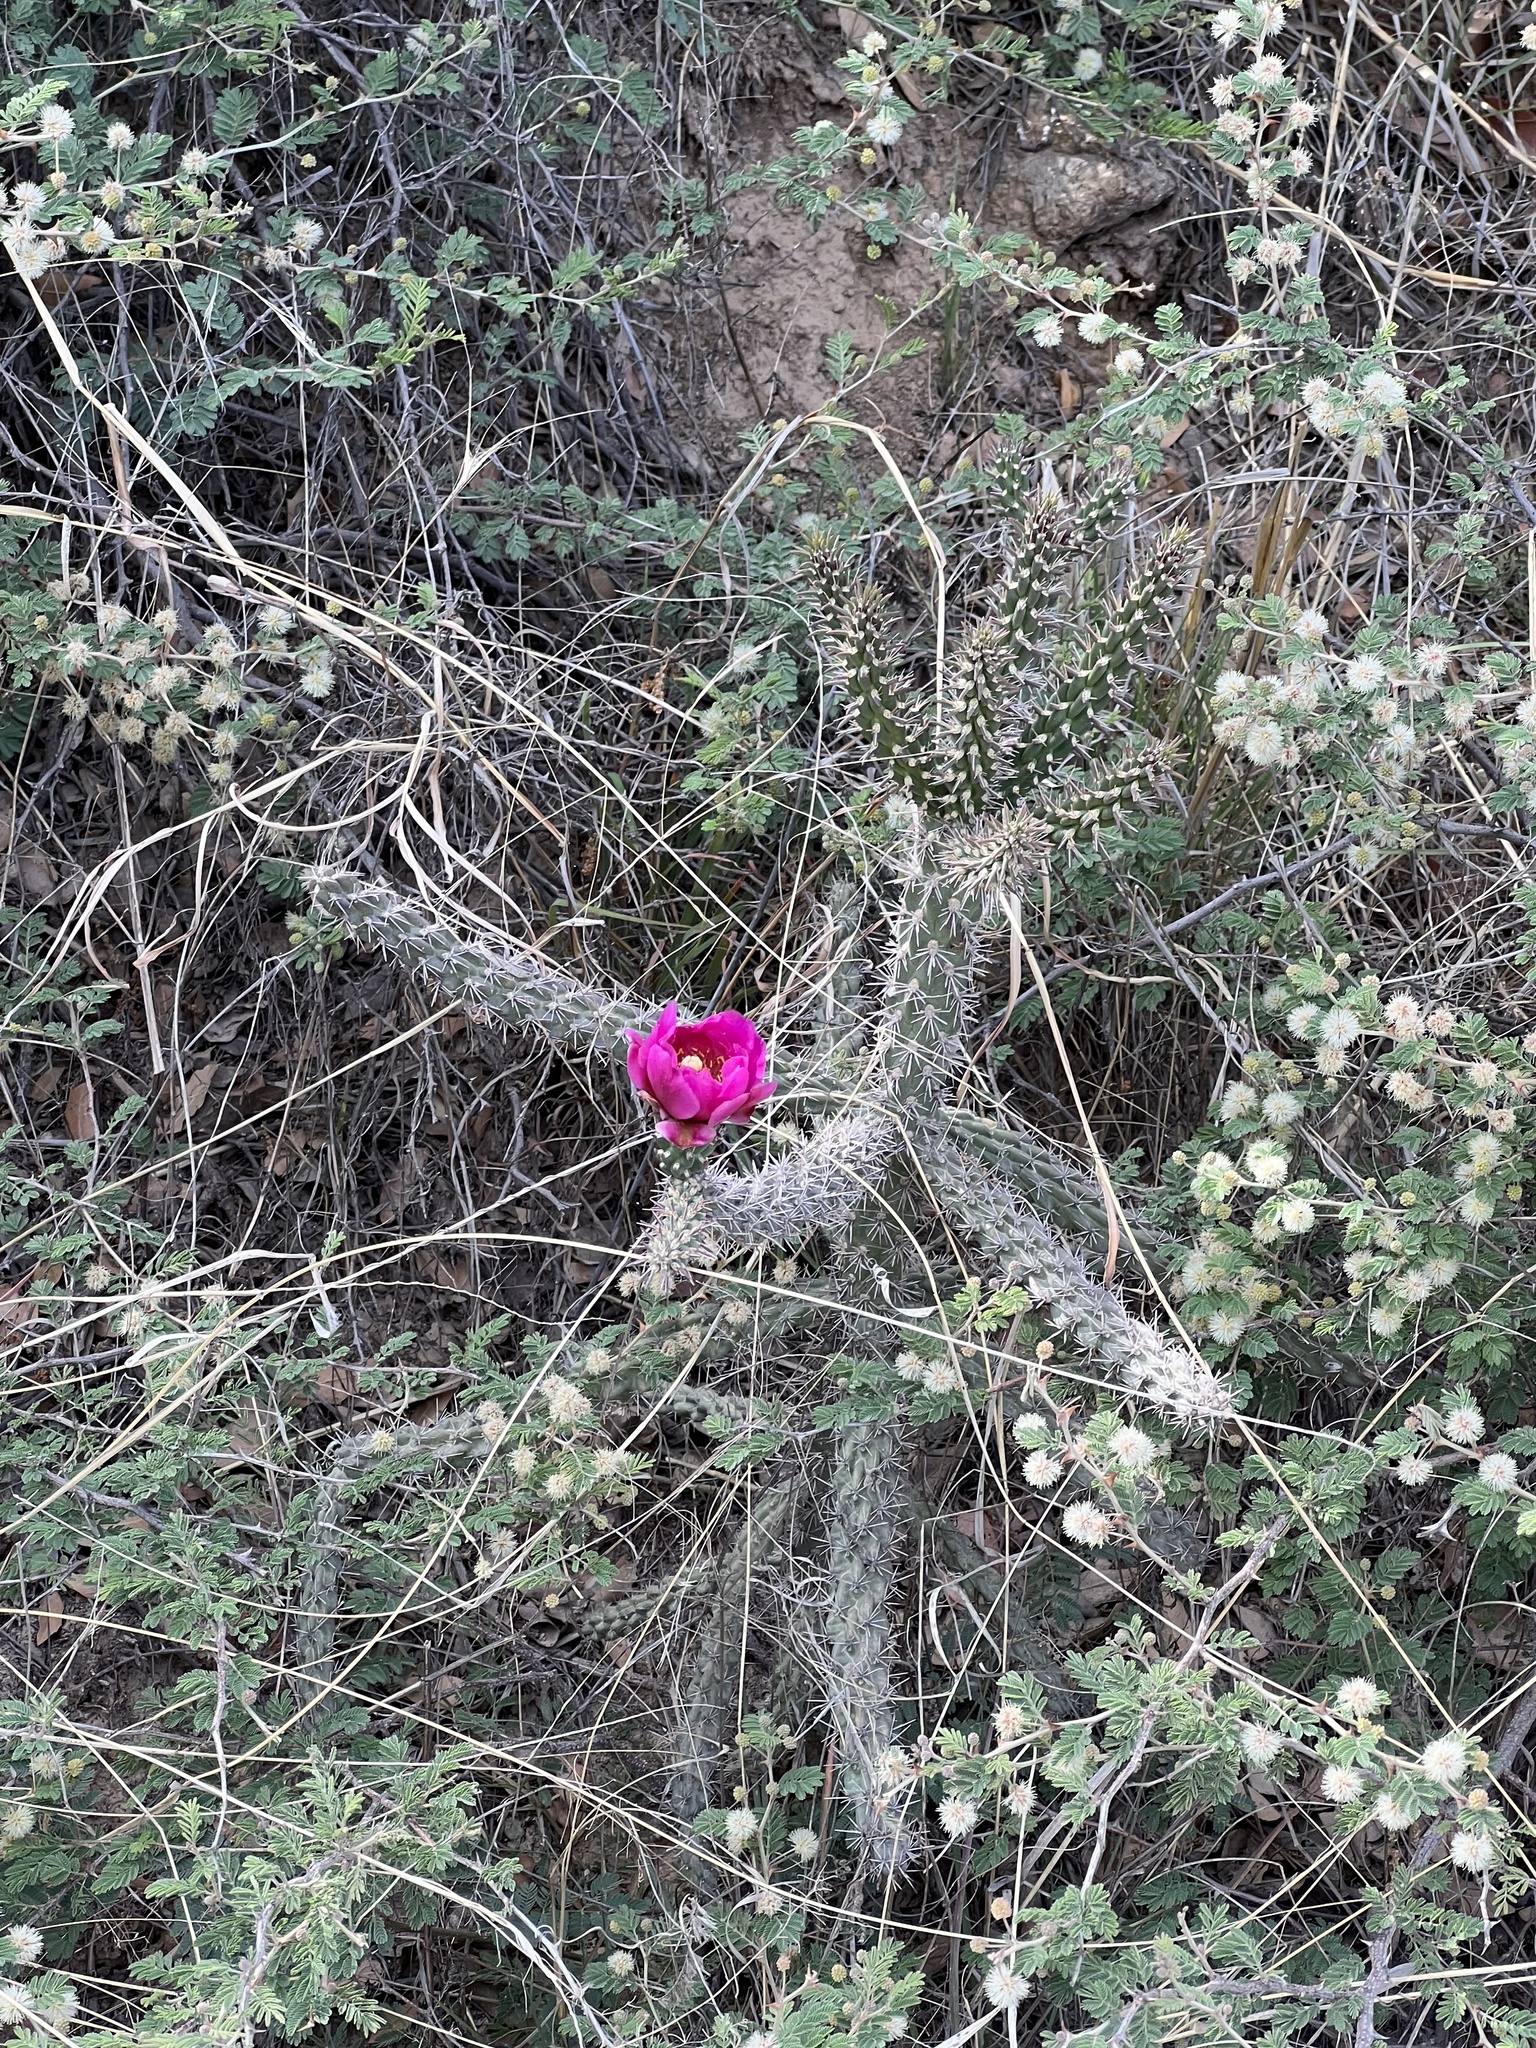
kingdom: Plantae
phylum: Tracheophyta
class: Magnoliopsida
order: Caryophyllales
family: Cactaceae
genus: Cylindropuntia
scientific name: Cylindropuntia imbricata
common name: Candelabrum cactus
